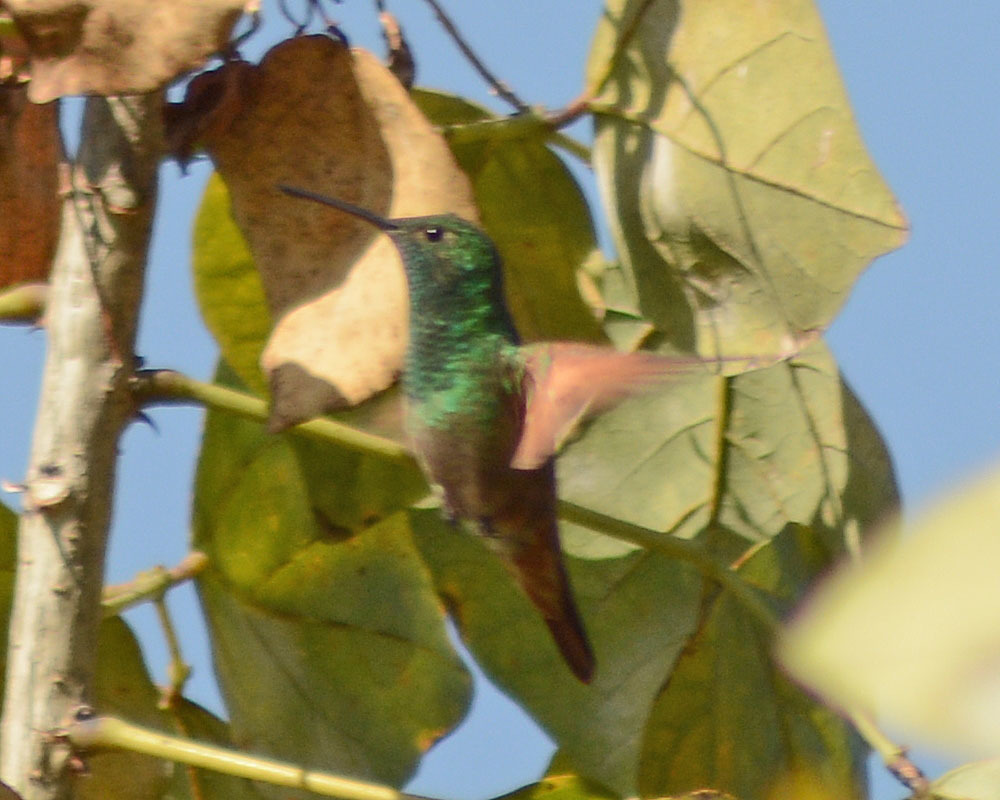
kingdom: Animalia
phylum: Chordata
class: Aves
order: Apodiformes
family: Trochilidae
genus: Saucerottia
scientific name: Saucerottia beryllina
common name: Berylline hummingbird
